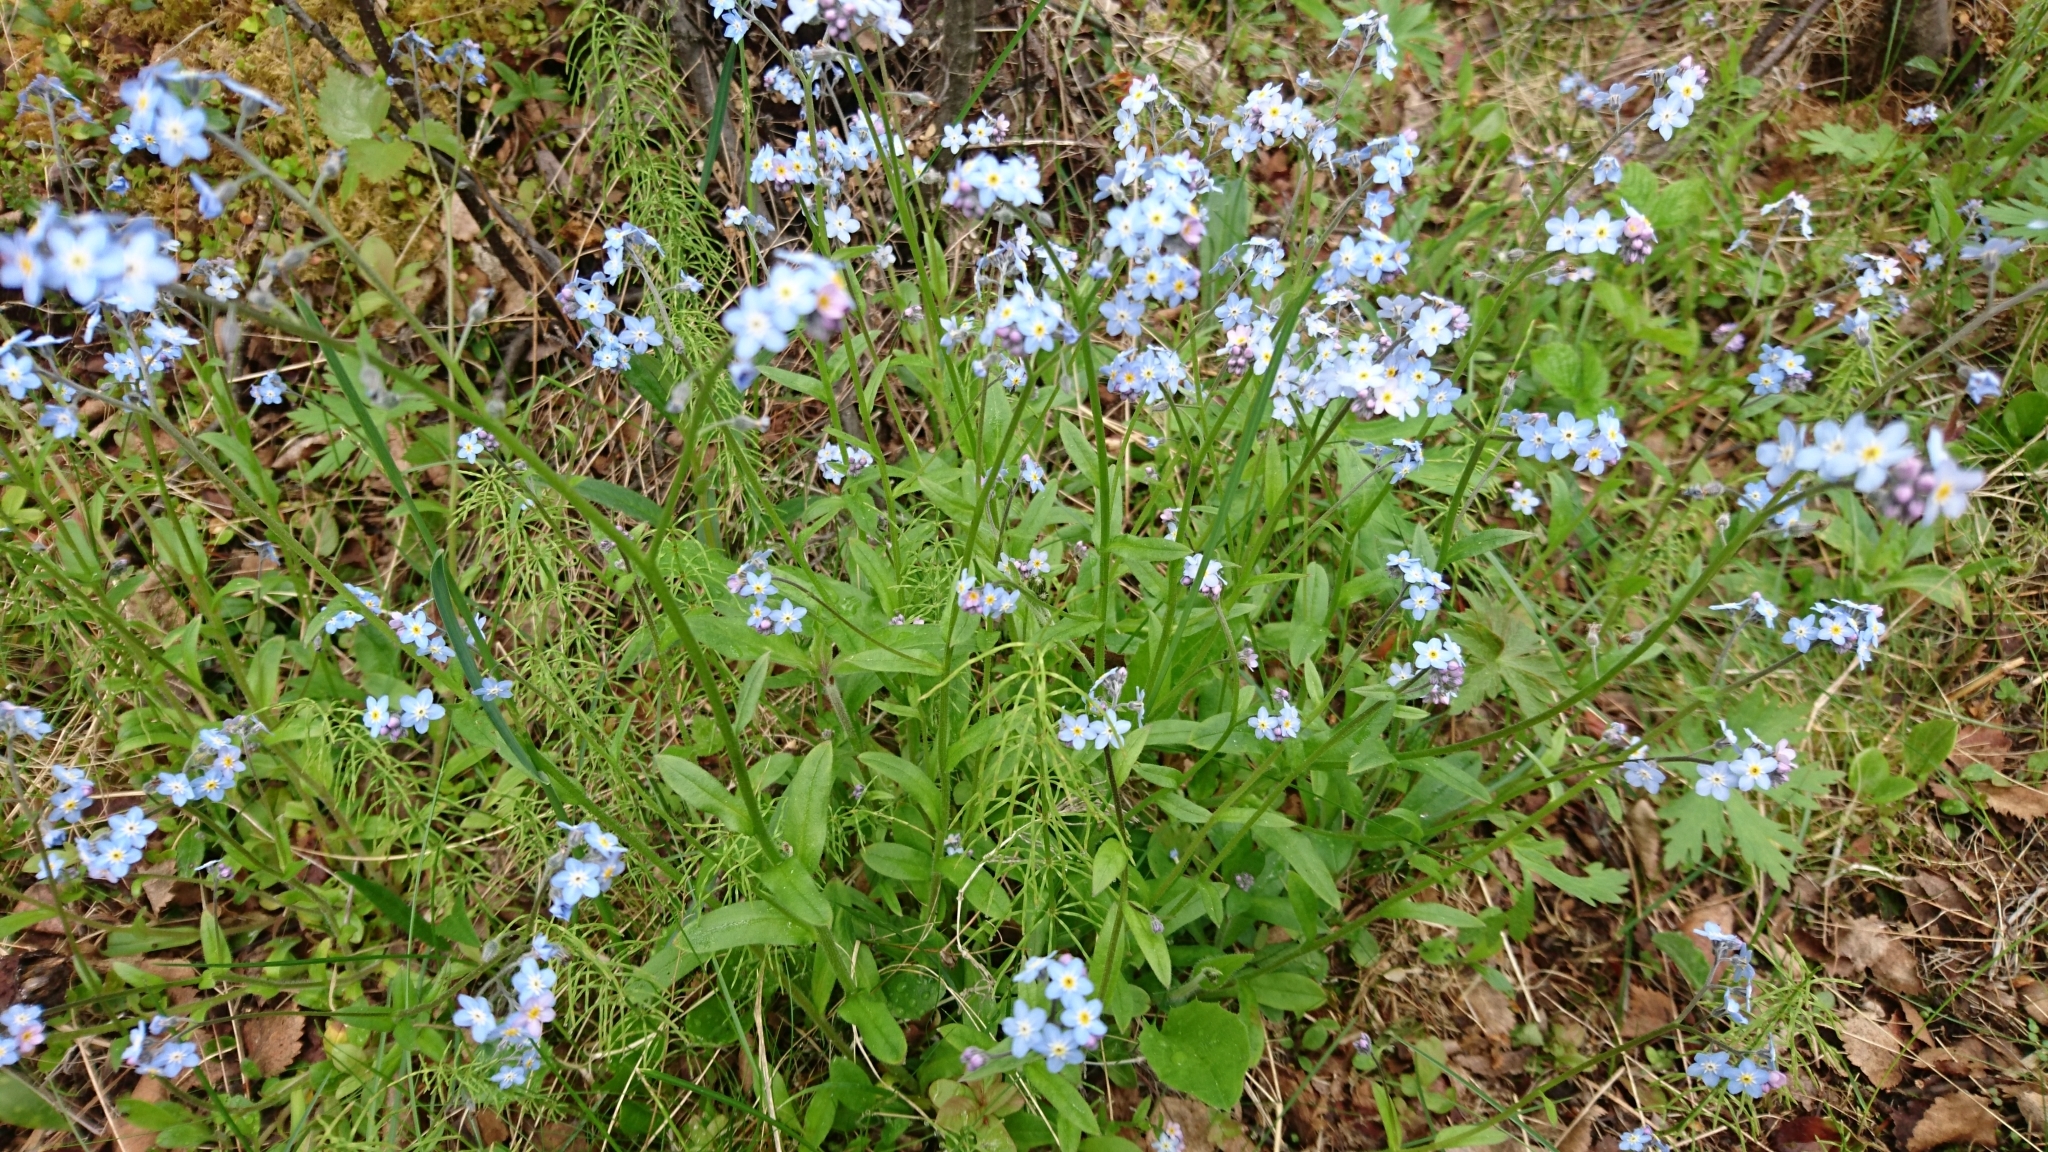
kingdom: Plantae
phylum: Tracheophyta
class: Magnoliopsida
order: Boraginales
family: Boraginaceae
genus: Myosotis
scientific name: Myosotis decumbens
